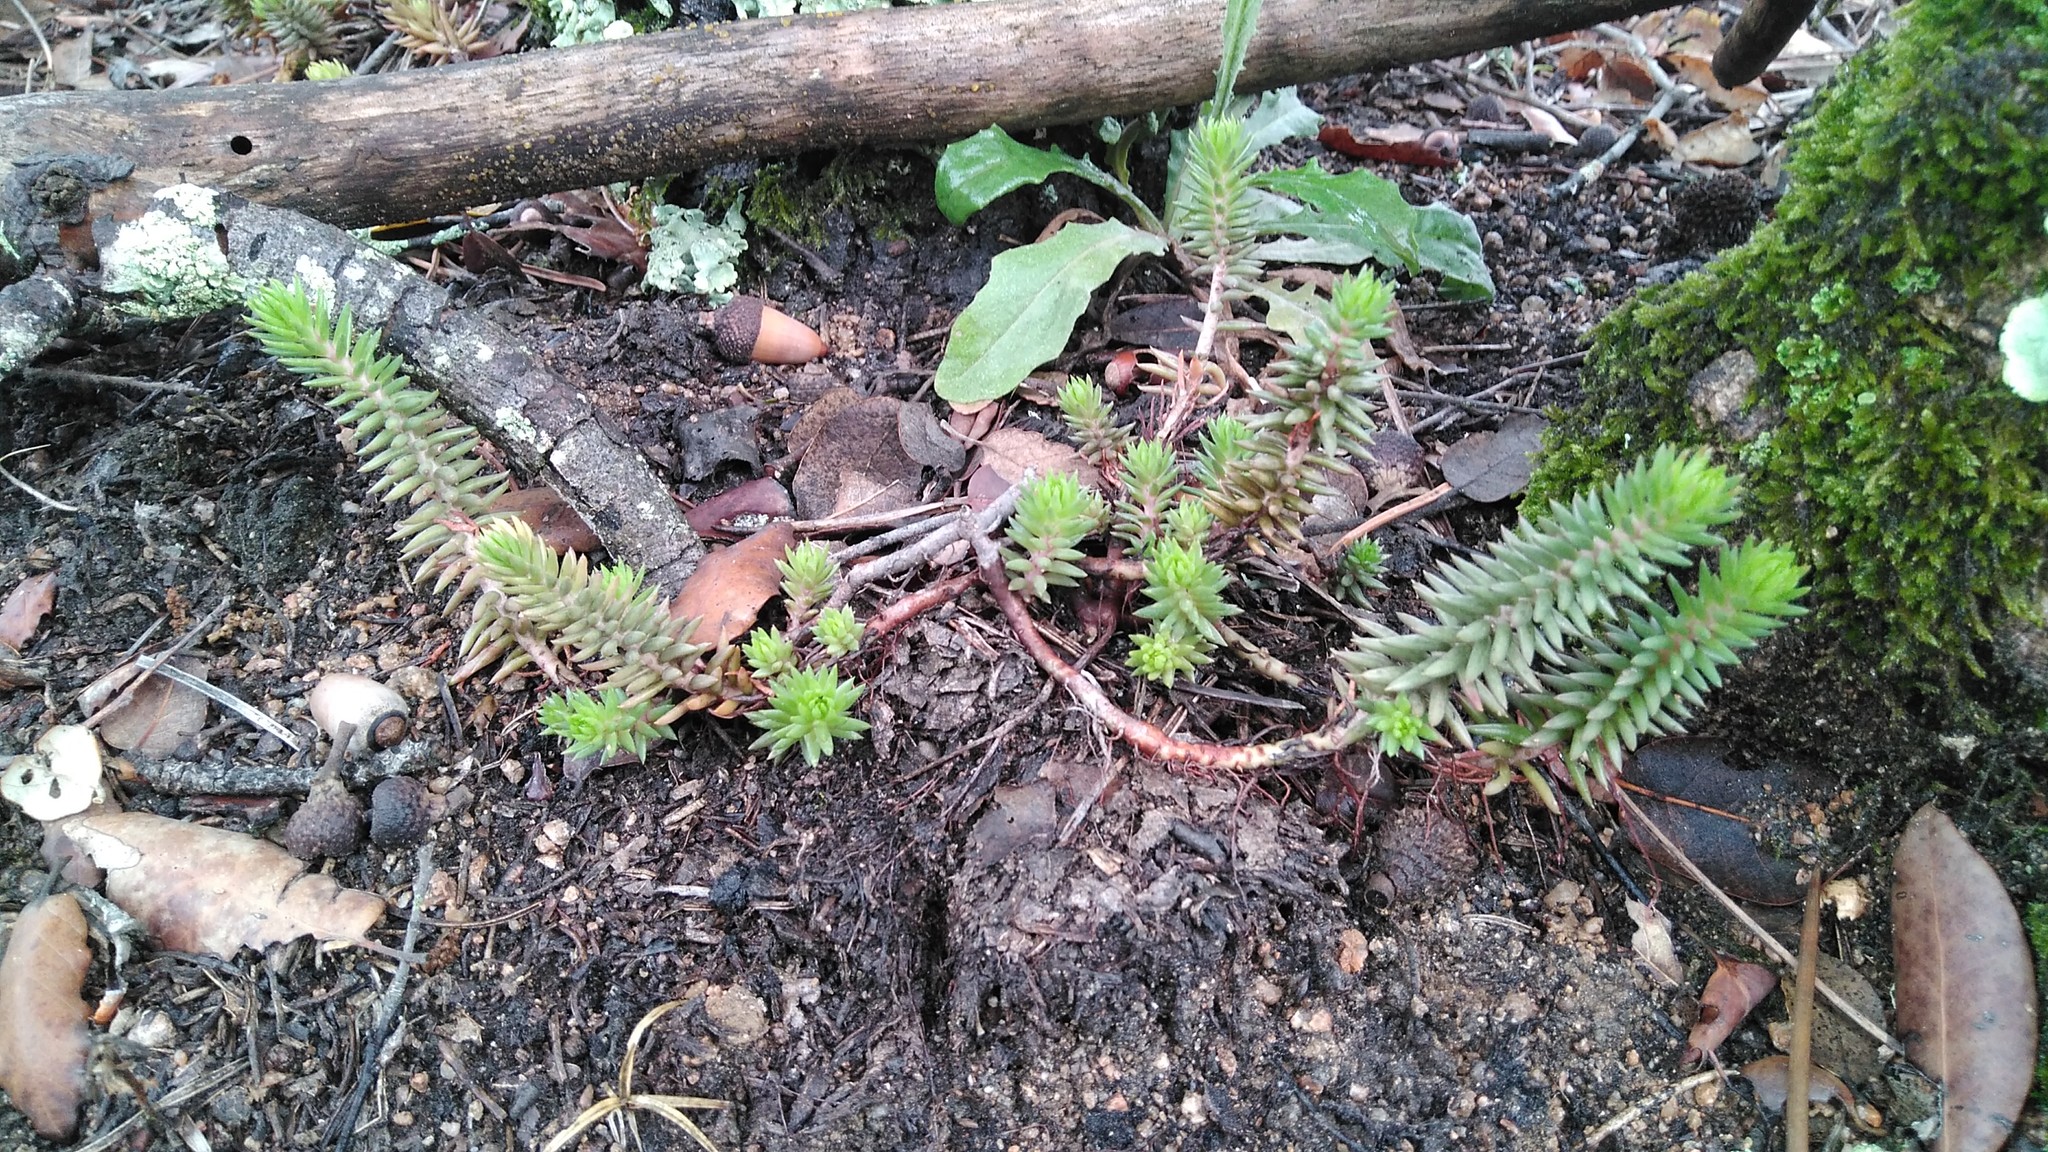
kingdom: Plantae
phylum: Tracheophyta
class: Magnoliopsida
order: Saxifragales
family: Crassulaceae
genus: Petrosedum
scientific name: Petrosedum rupestre
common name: Jenny's stonecrop
